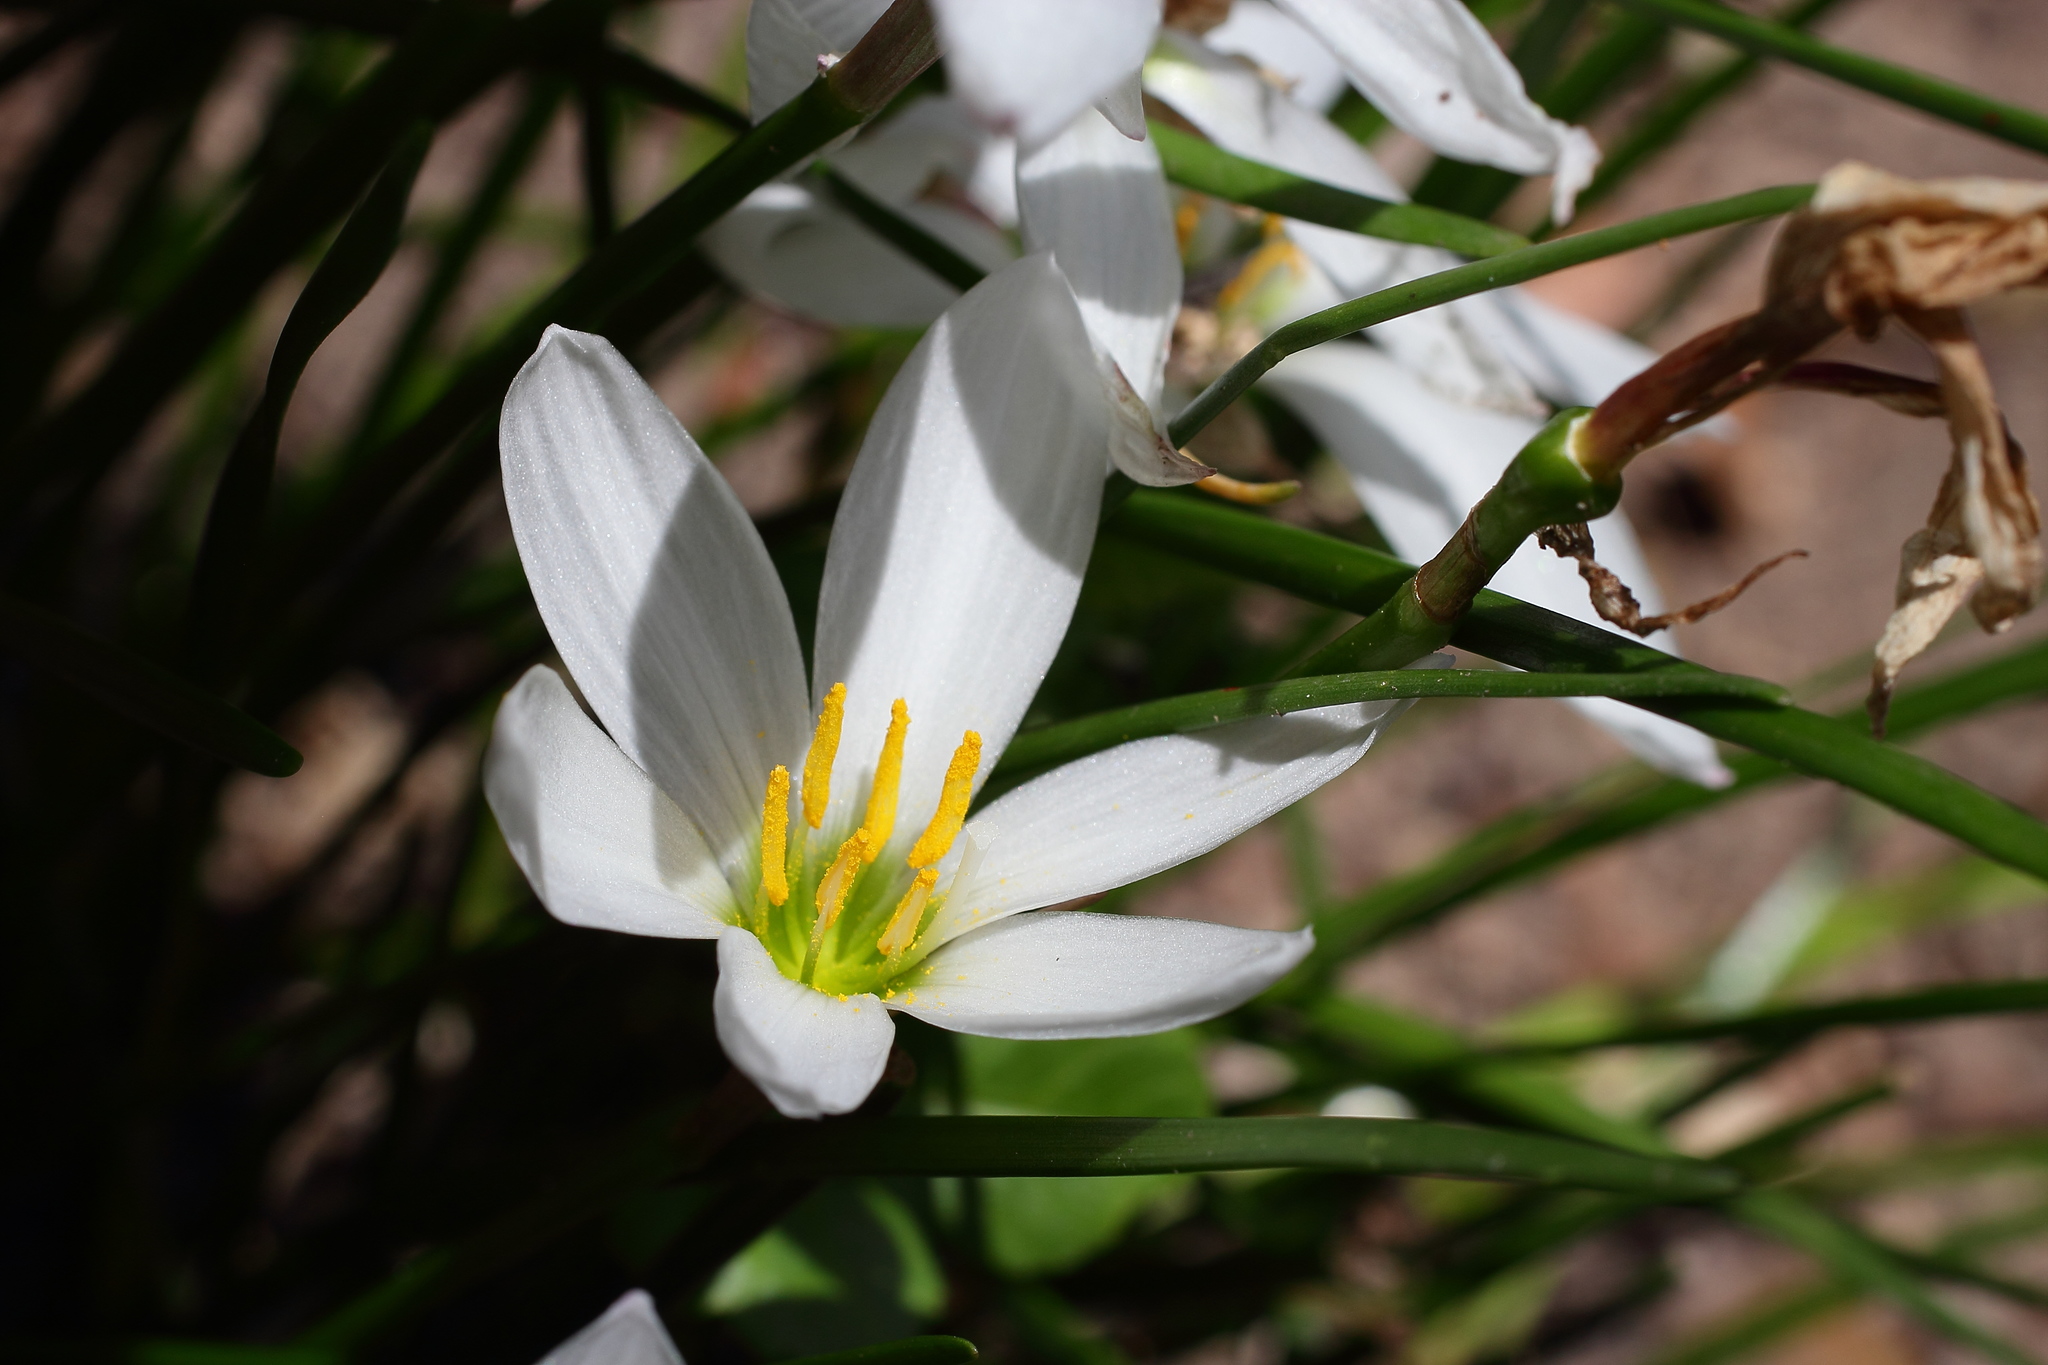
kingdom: Plantae
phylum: Tracheophyta
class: Liliopsida
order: Asparagales
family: Amaryllidaceae
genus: Zephyranthes
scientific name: Zephyranthes candida
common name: Autumn zephyrlily
